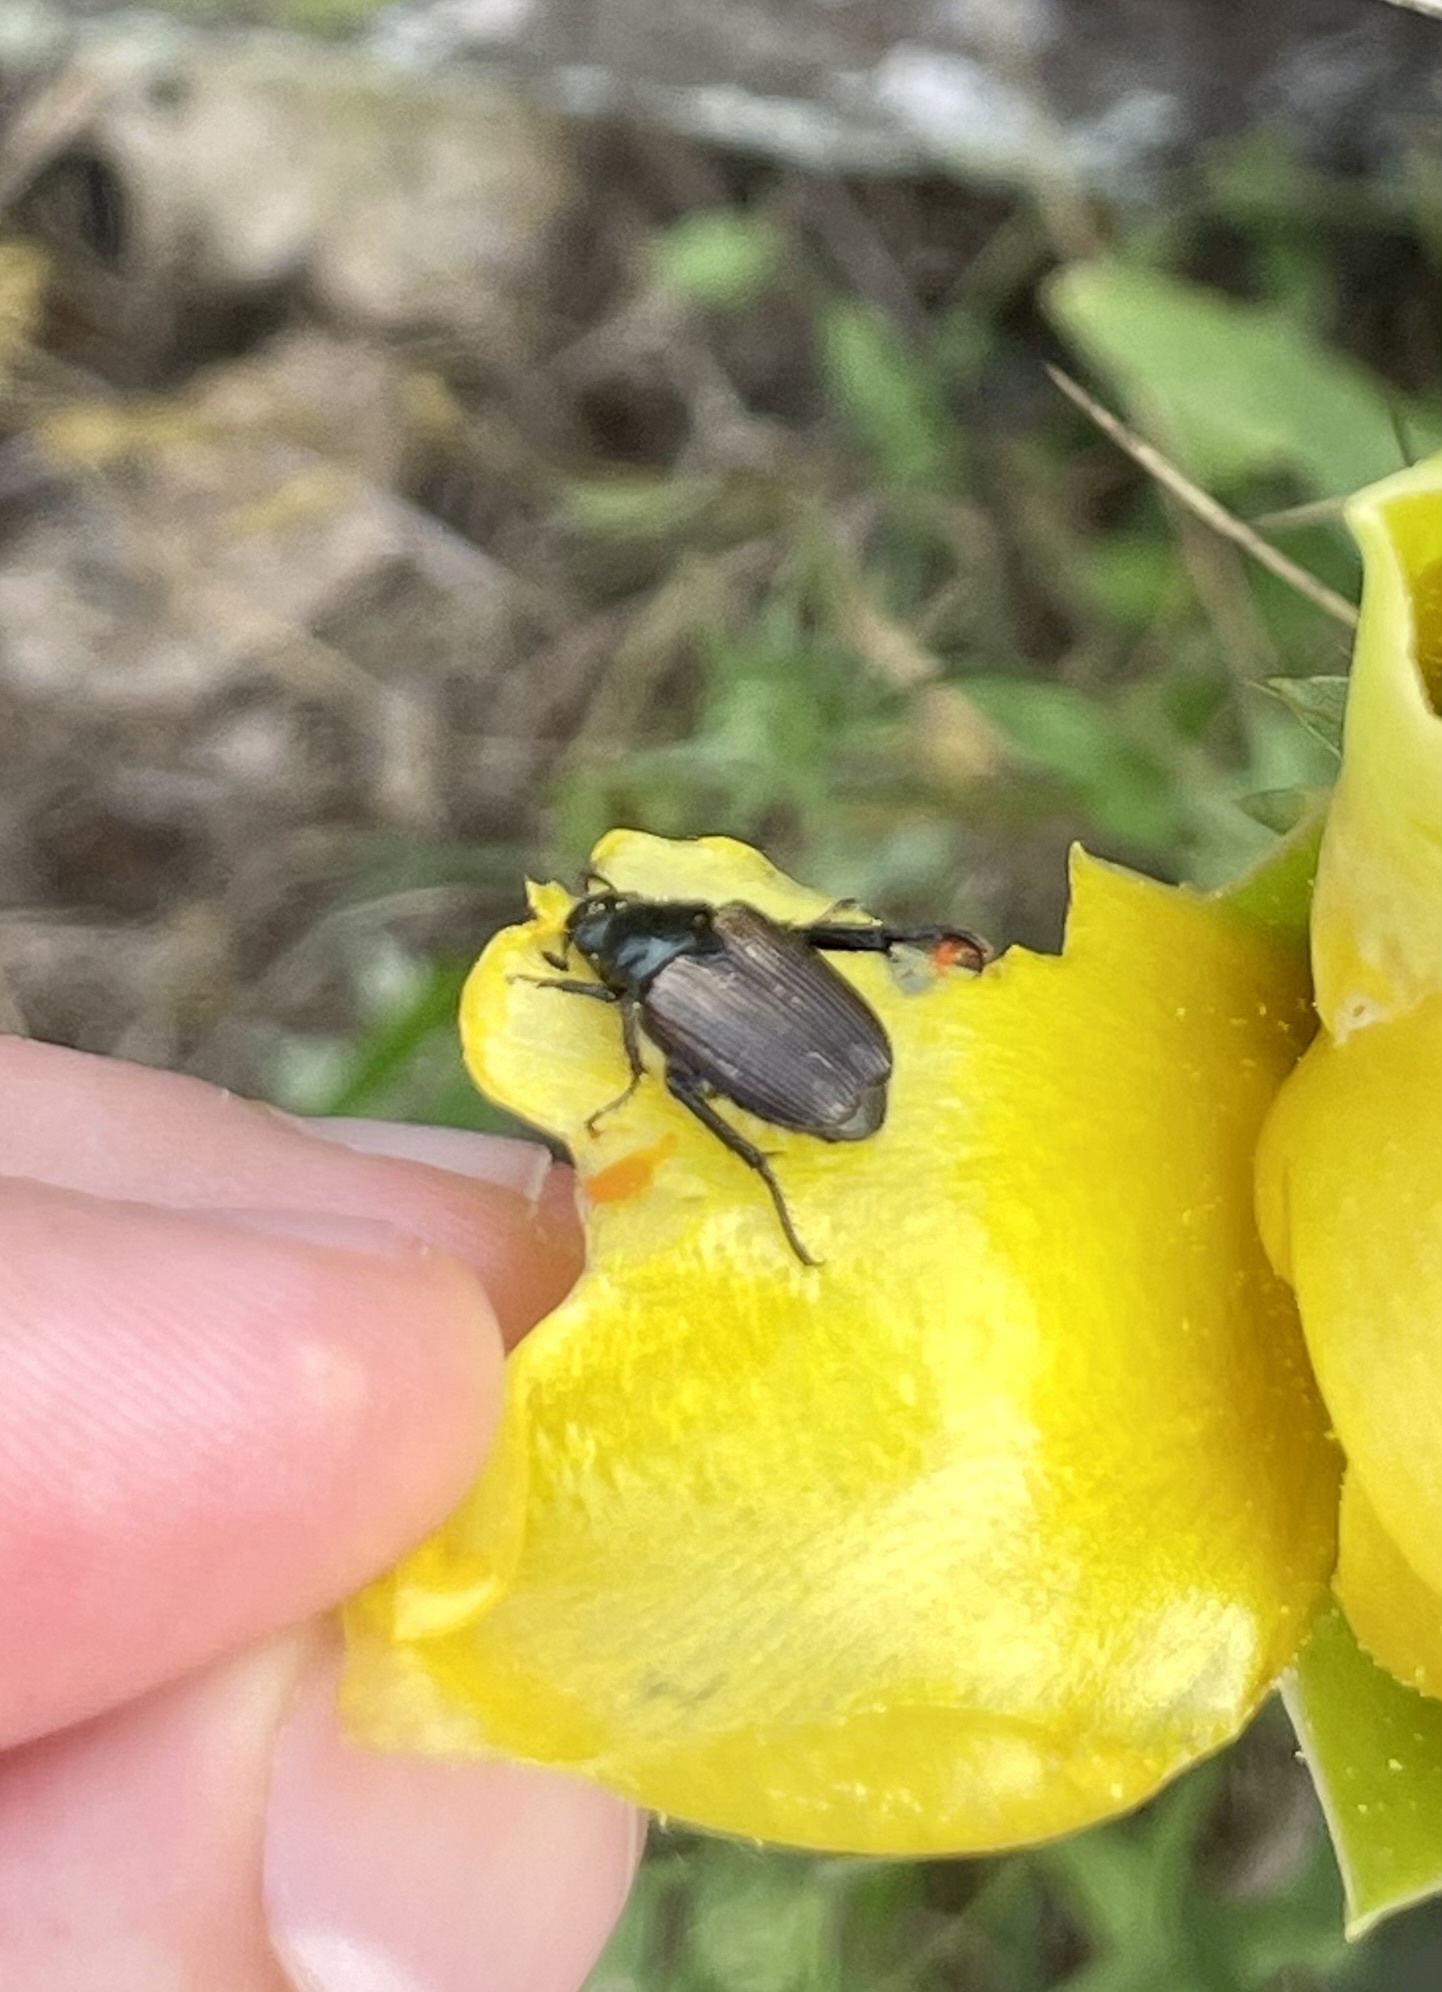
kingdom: Animalia
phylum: Arthropoda
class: Insecta
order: Coleoptera
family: Scarabaeidae
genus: Strigoderma
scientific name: Strigoderma arbicola
